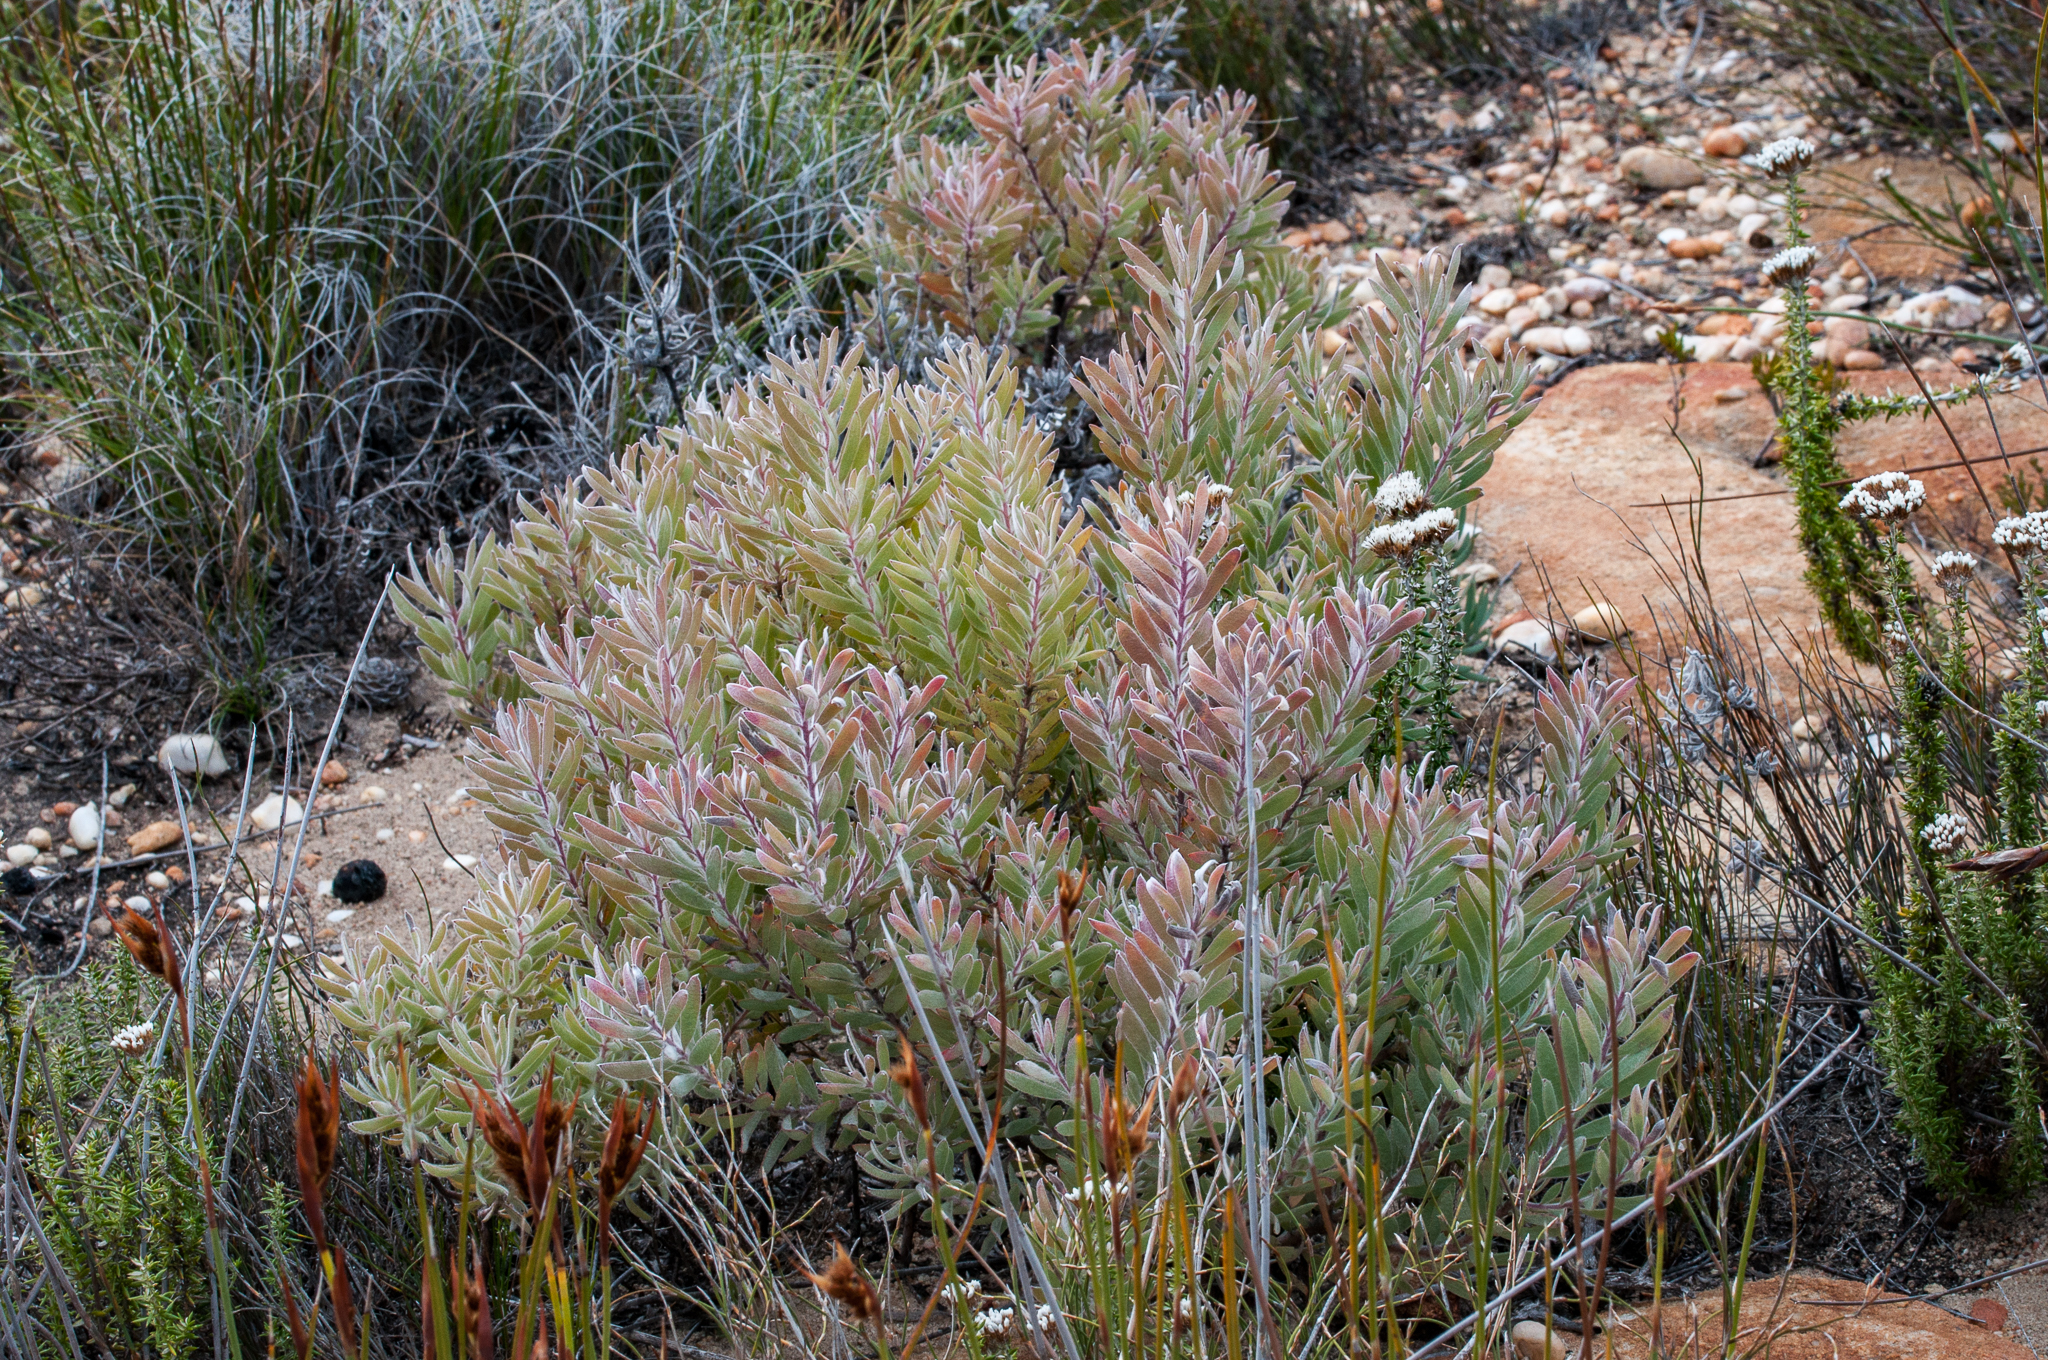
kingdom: Plantae
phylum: Tracheophyta
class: Magnoliopsida
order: Proteales
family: Proteaceae
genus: Leucadendron
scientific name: Leucadendron rubrum
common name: Spinning top
